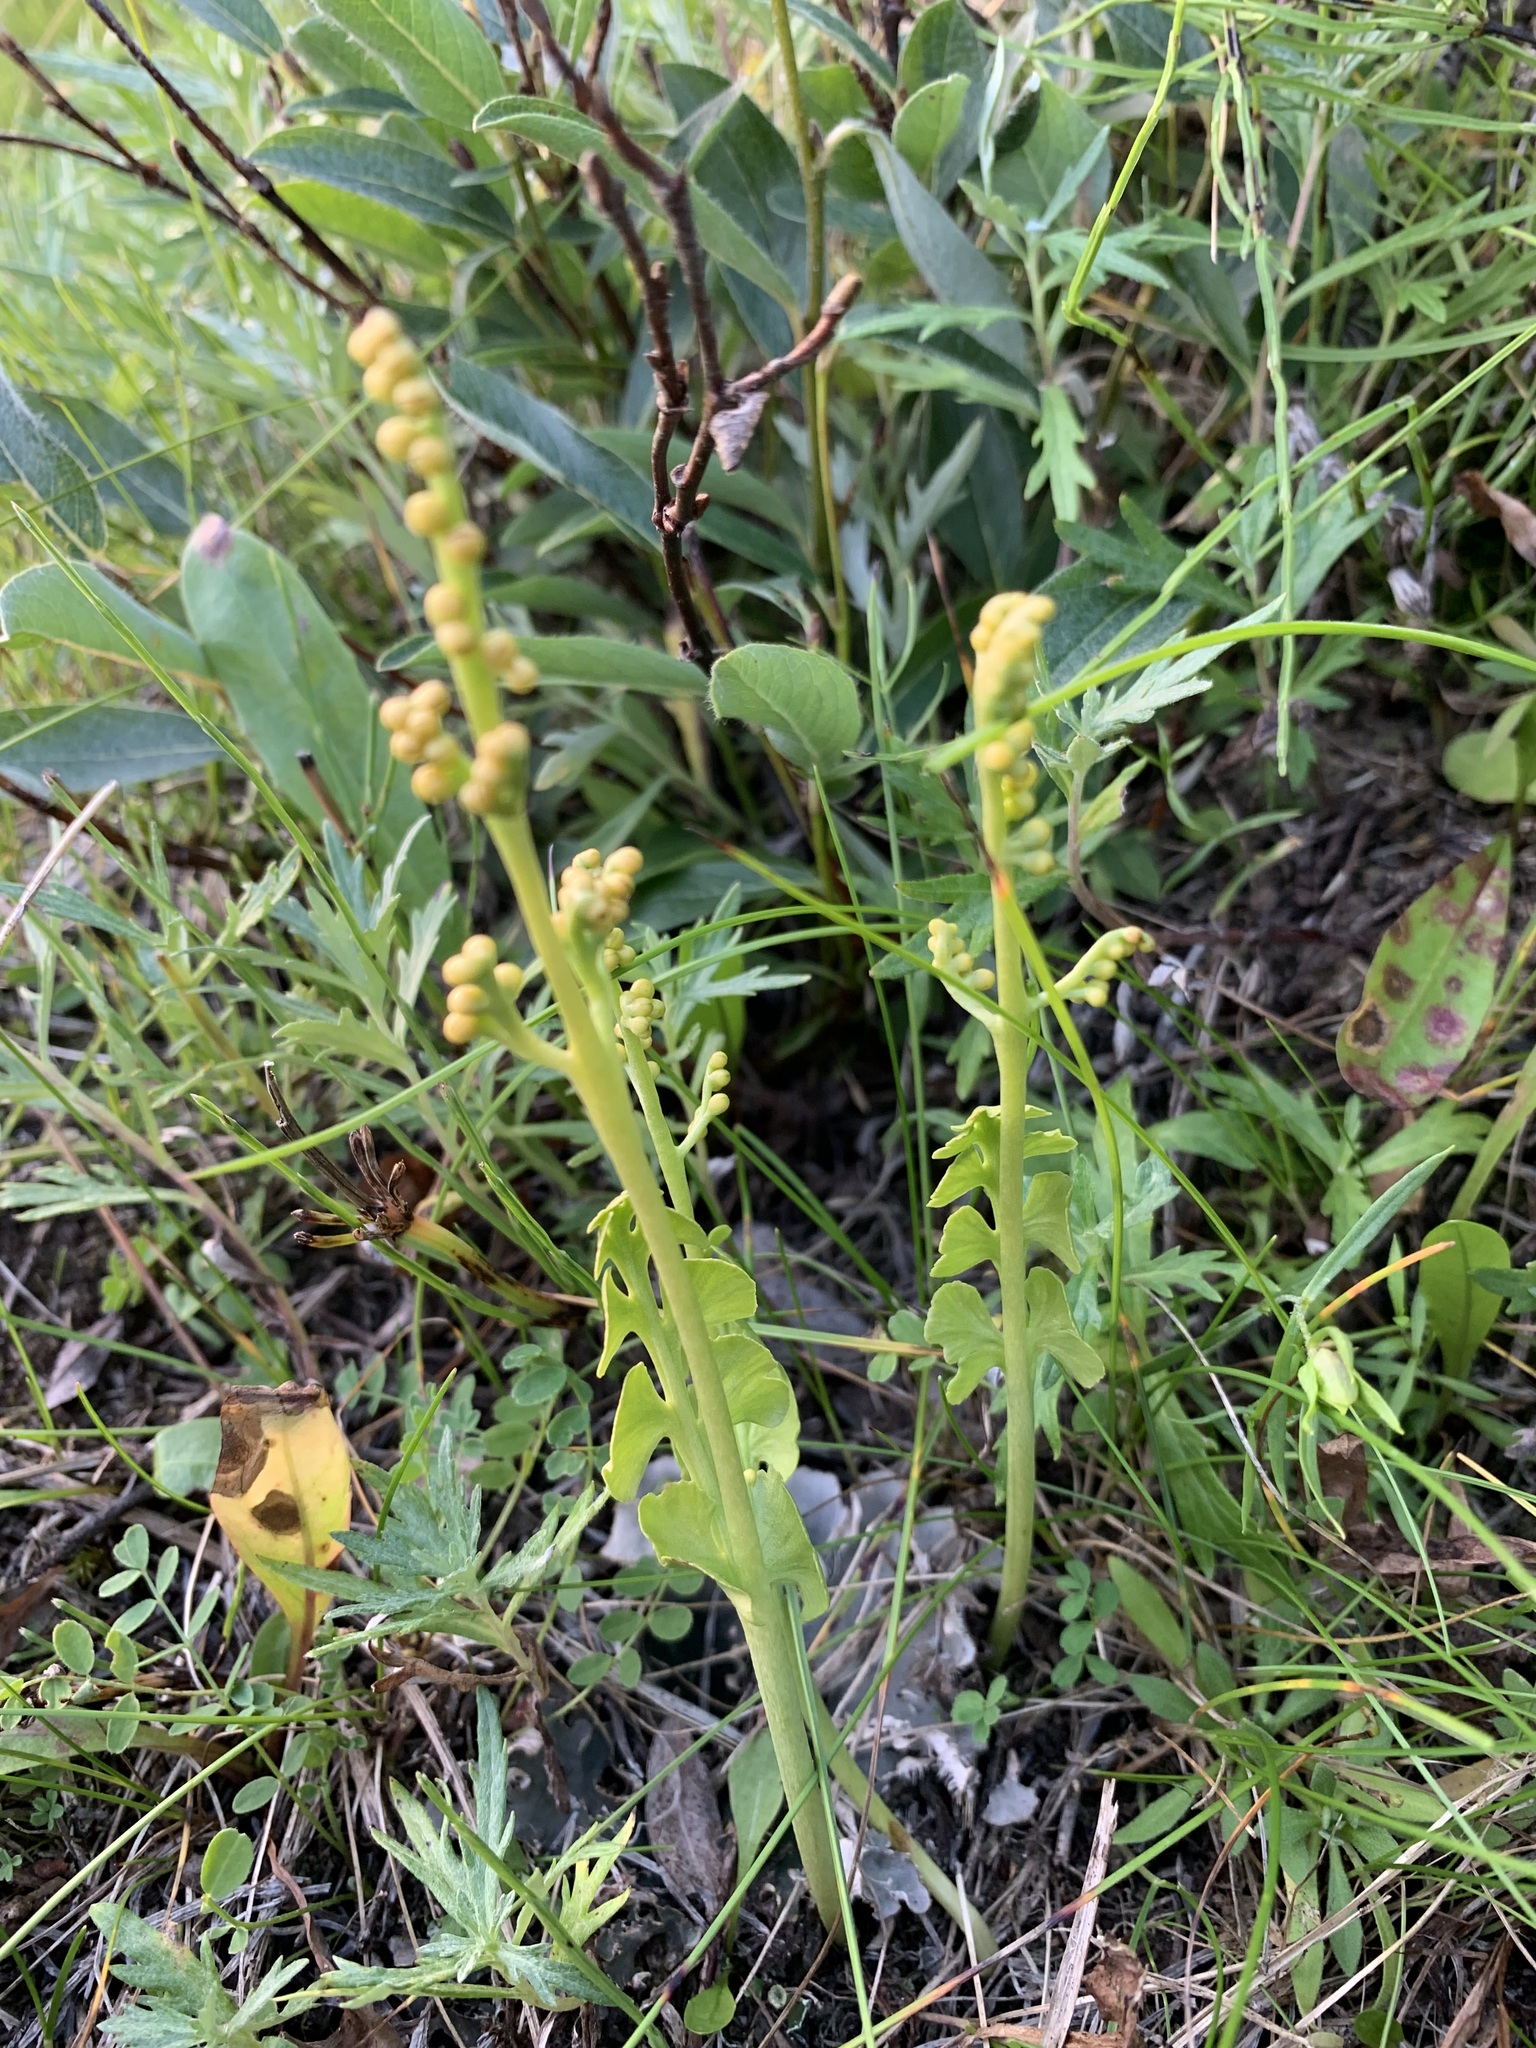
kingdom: Plantae
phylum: Tracheophyta
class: Polypodiopsida
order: Ophioglossales
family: Ophioglossaceae
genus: Botrychium
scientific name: Botrychium lunaria
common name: Moonwort
